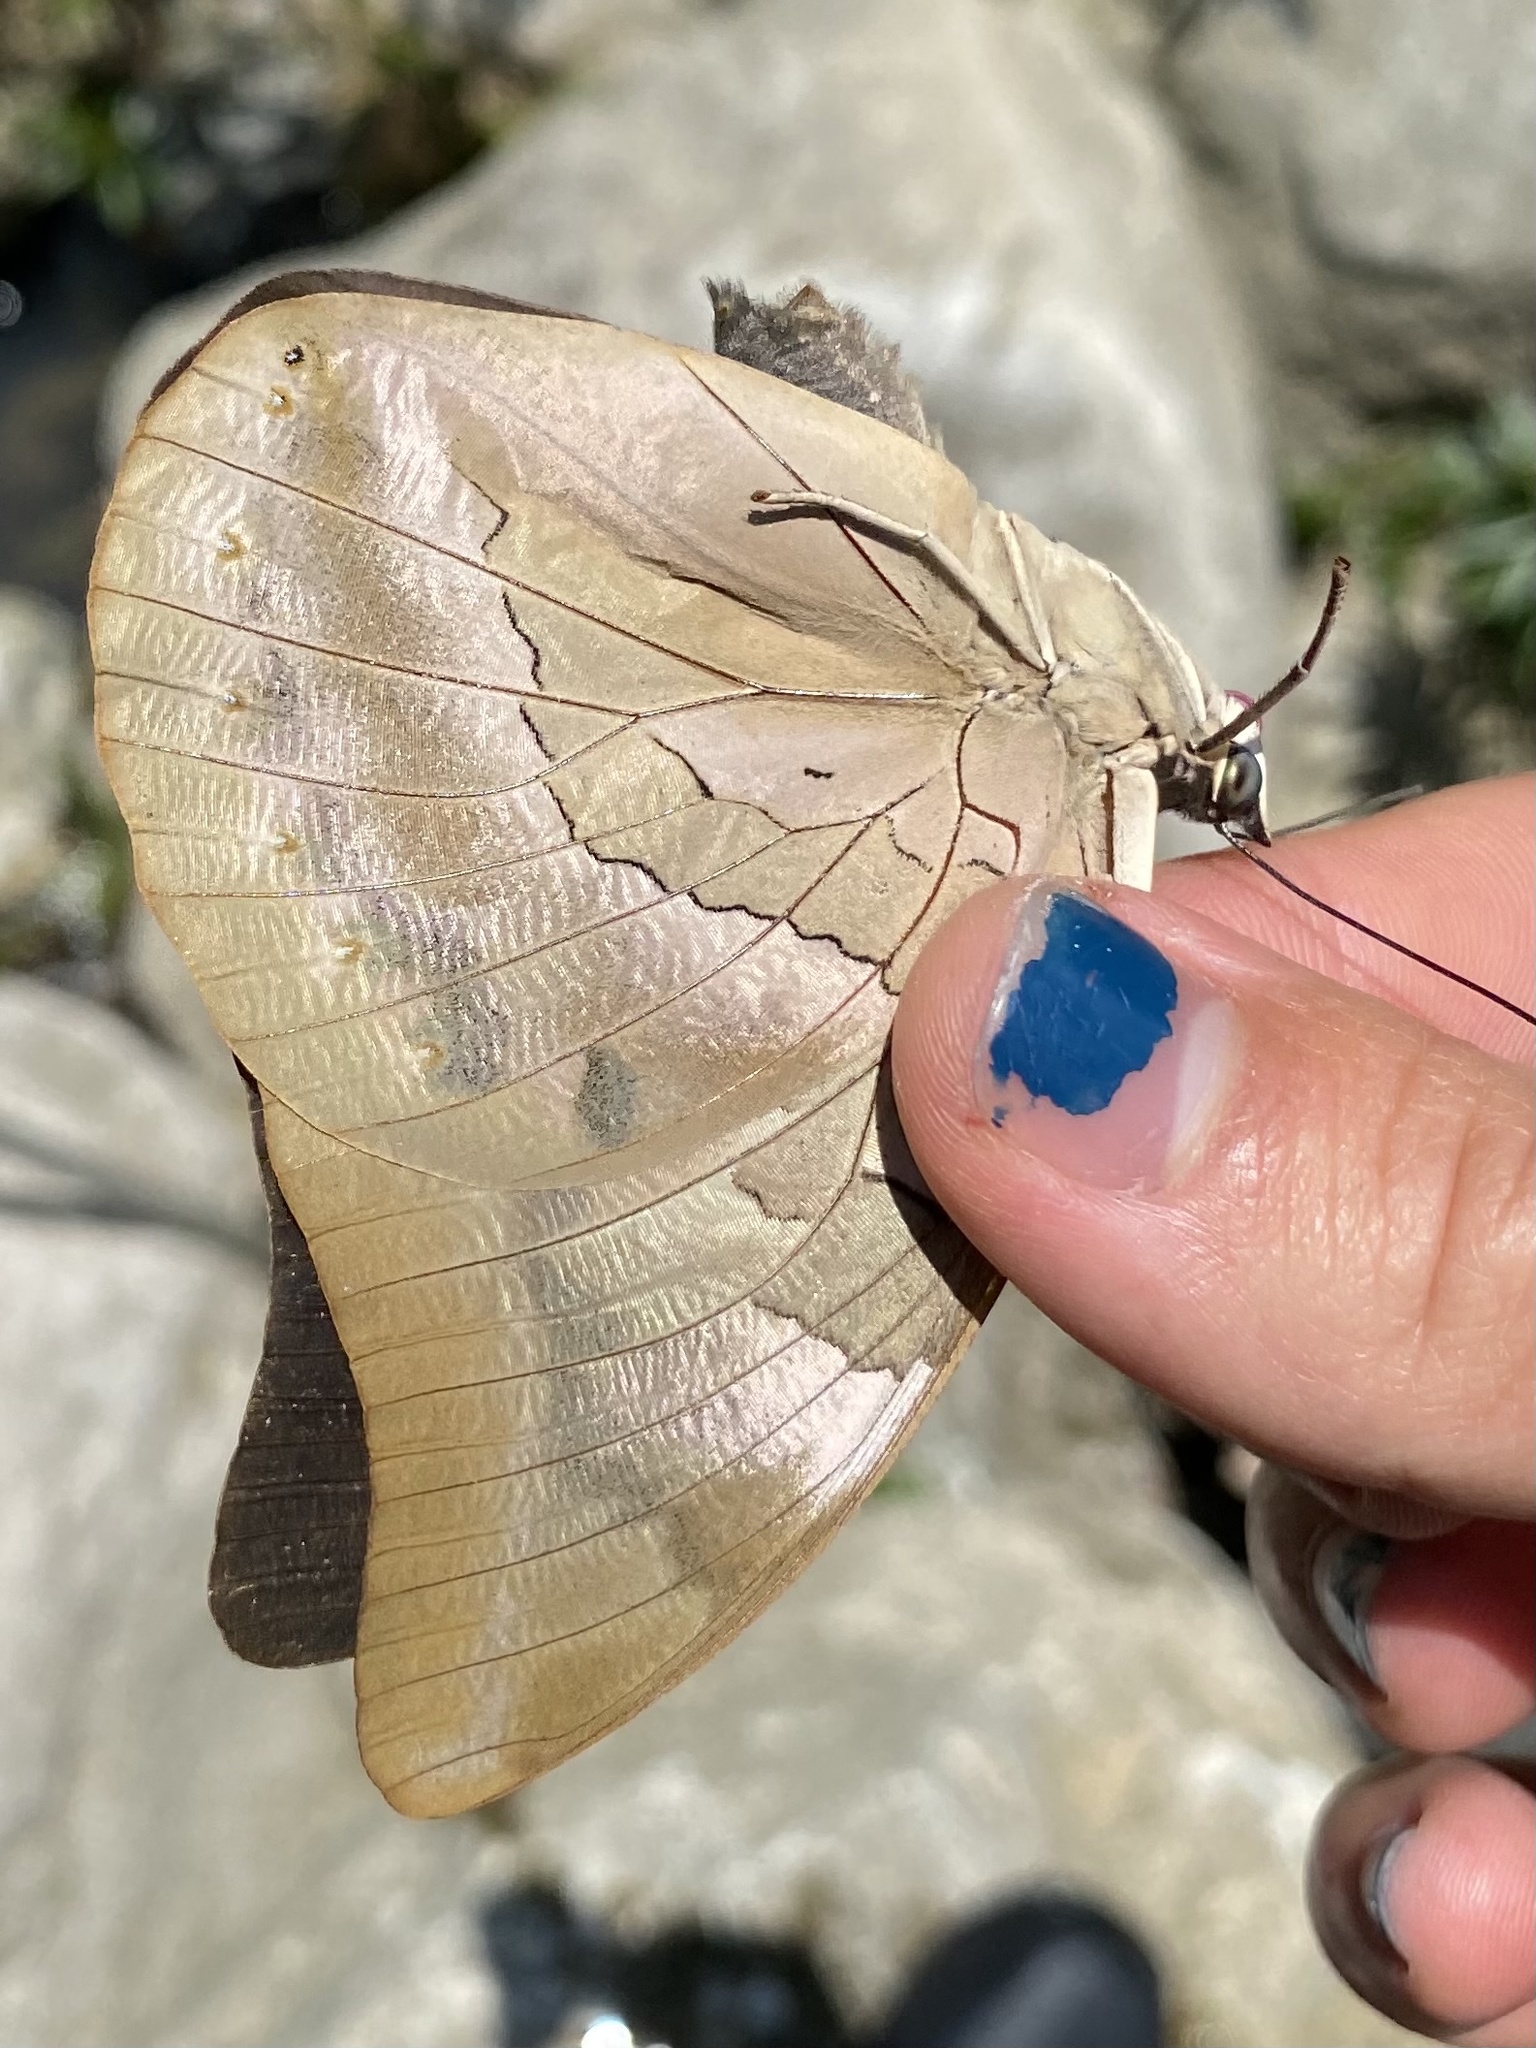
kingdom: Animalia
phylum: Arthropoda
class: Insecta
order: Lepidoptera
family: Nymphalidae
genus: Prepona
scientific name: Prepona Archaeoprepona demophon
